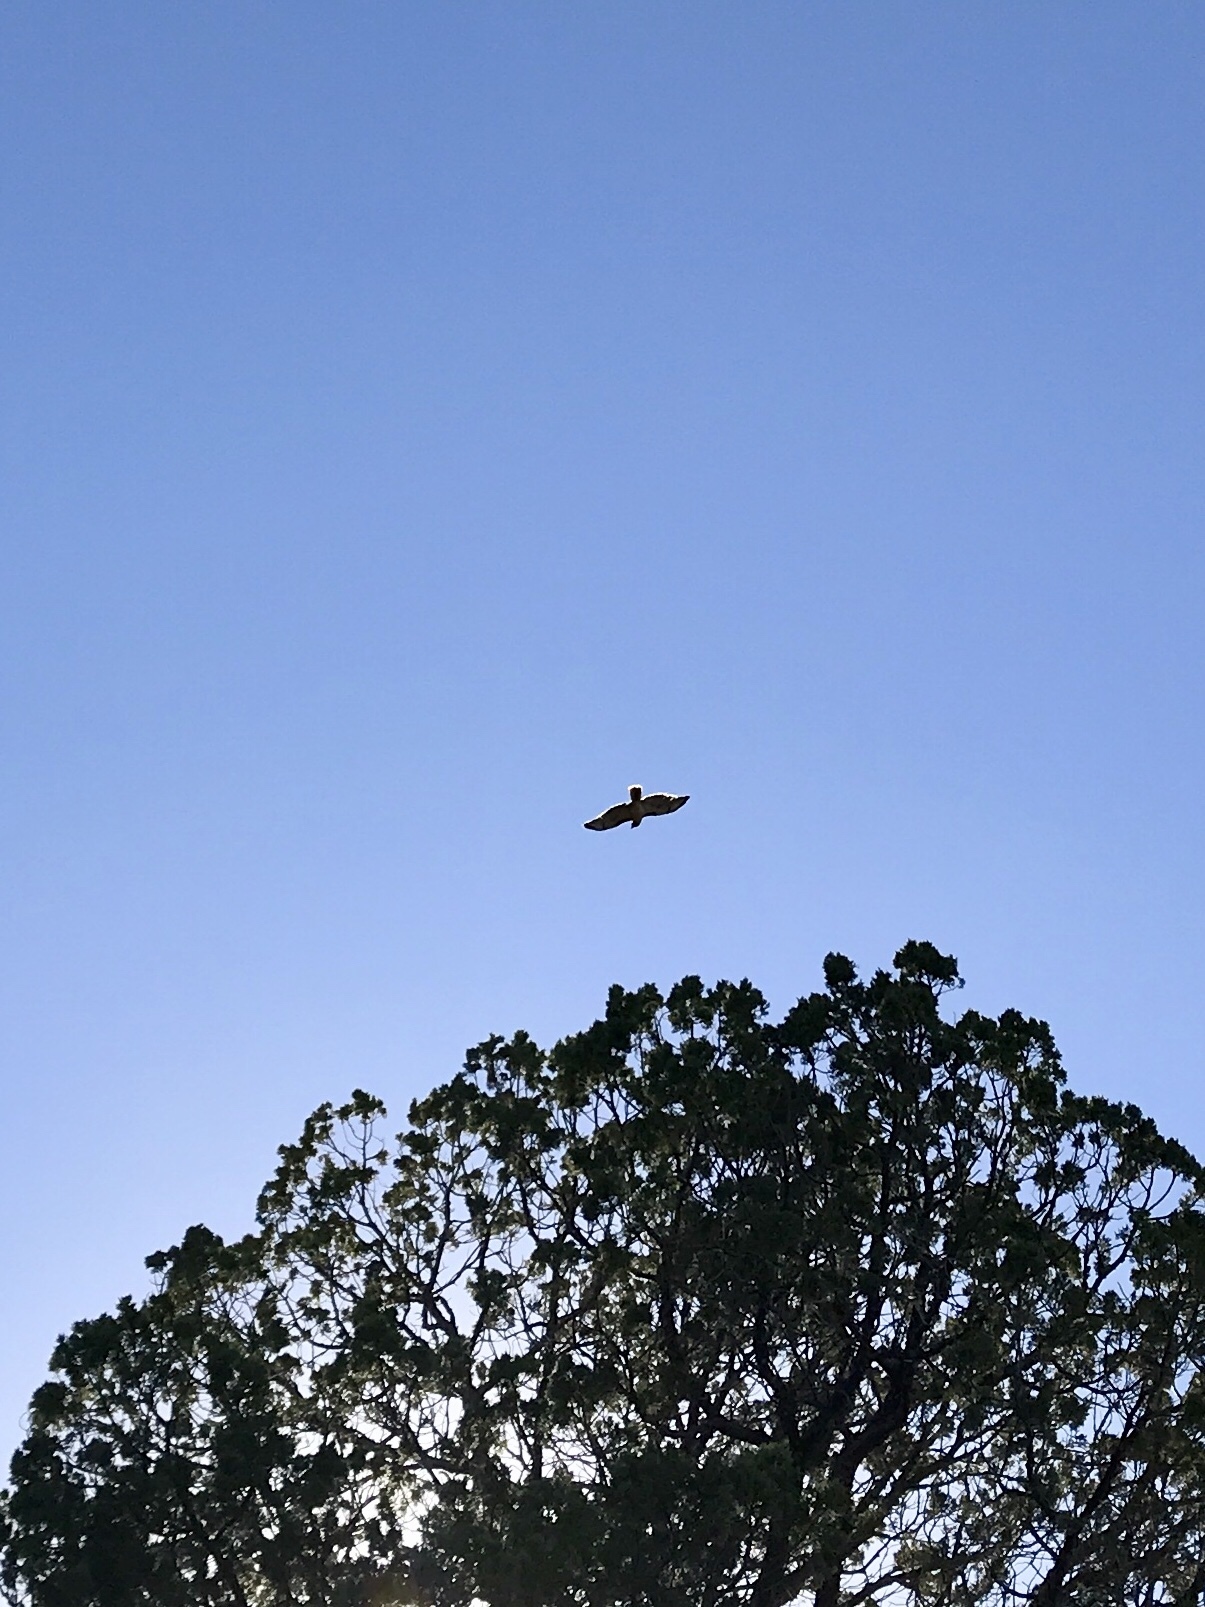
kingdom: Animalia
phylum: Chordata
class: Aves
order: Accipitriformes
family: Accipitridae
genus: Buteo
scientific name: Buteo jamaicensis
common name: Red-tailed hawk
